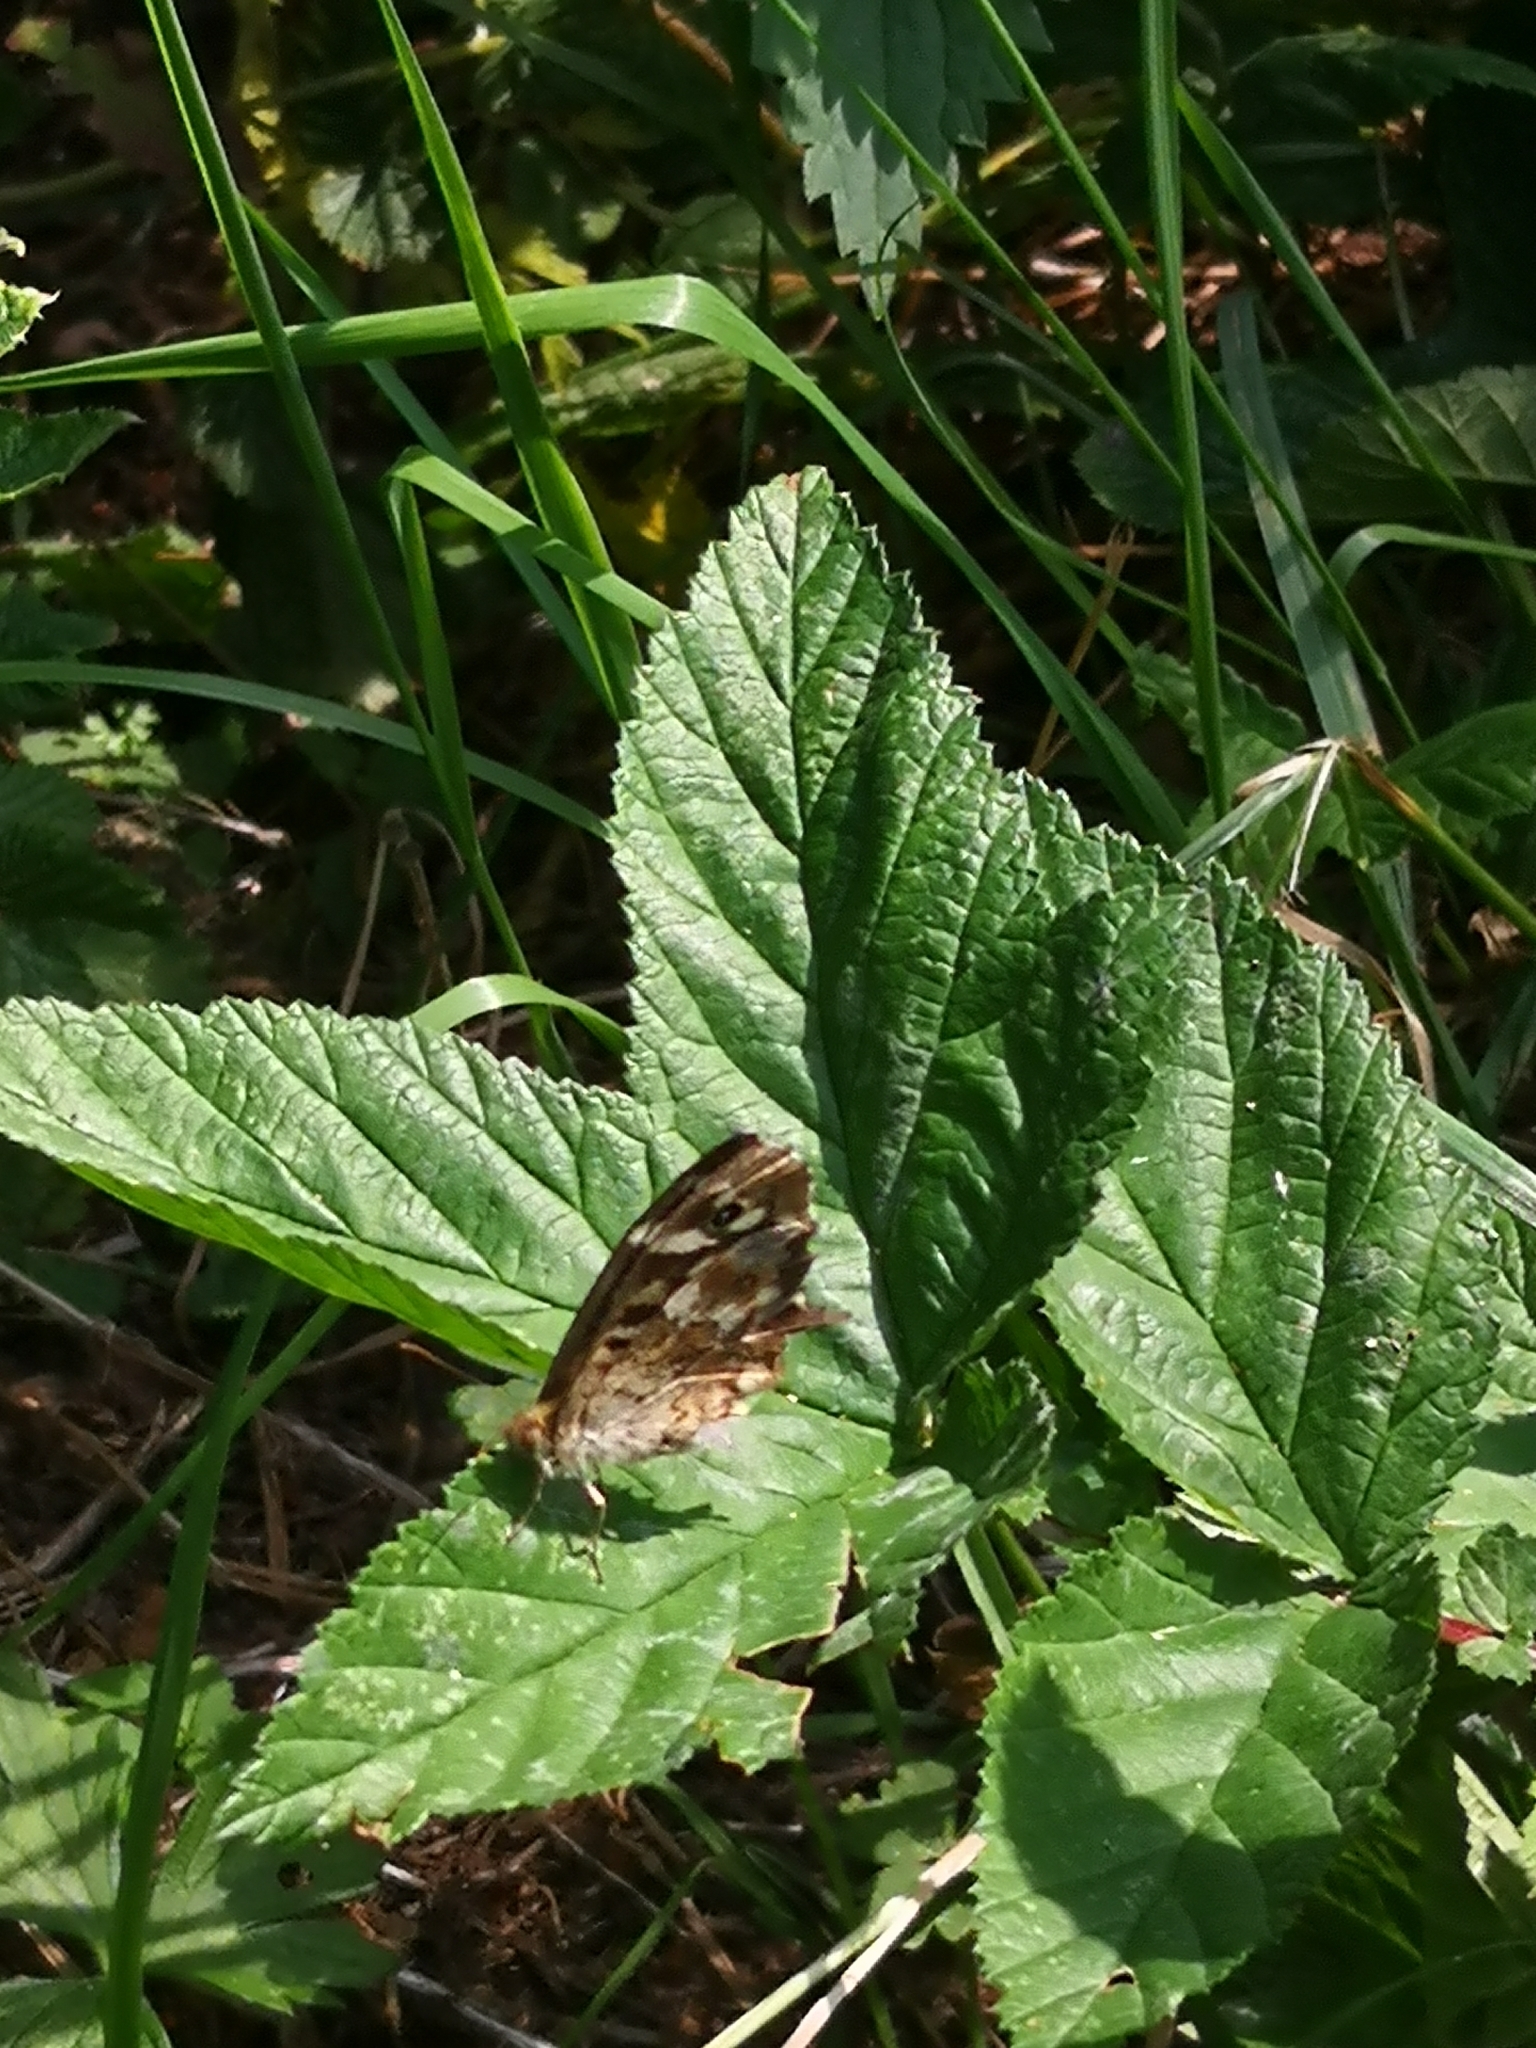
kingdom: Animalia
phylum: Arthropoda
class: Insecta
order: Lepidoptera
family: Nymphalidae
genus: Pararge
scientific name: Pararge aegeria
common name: Speckled wood
